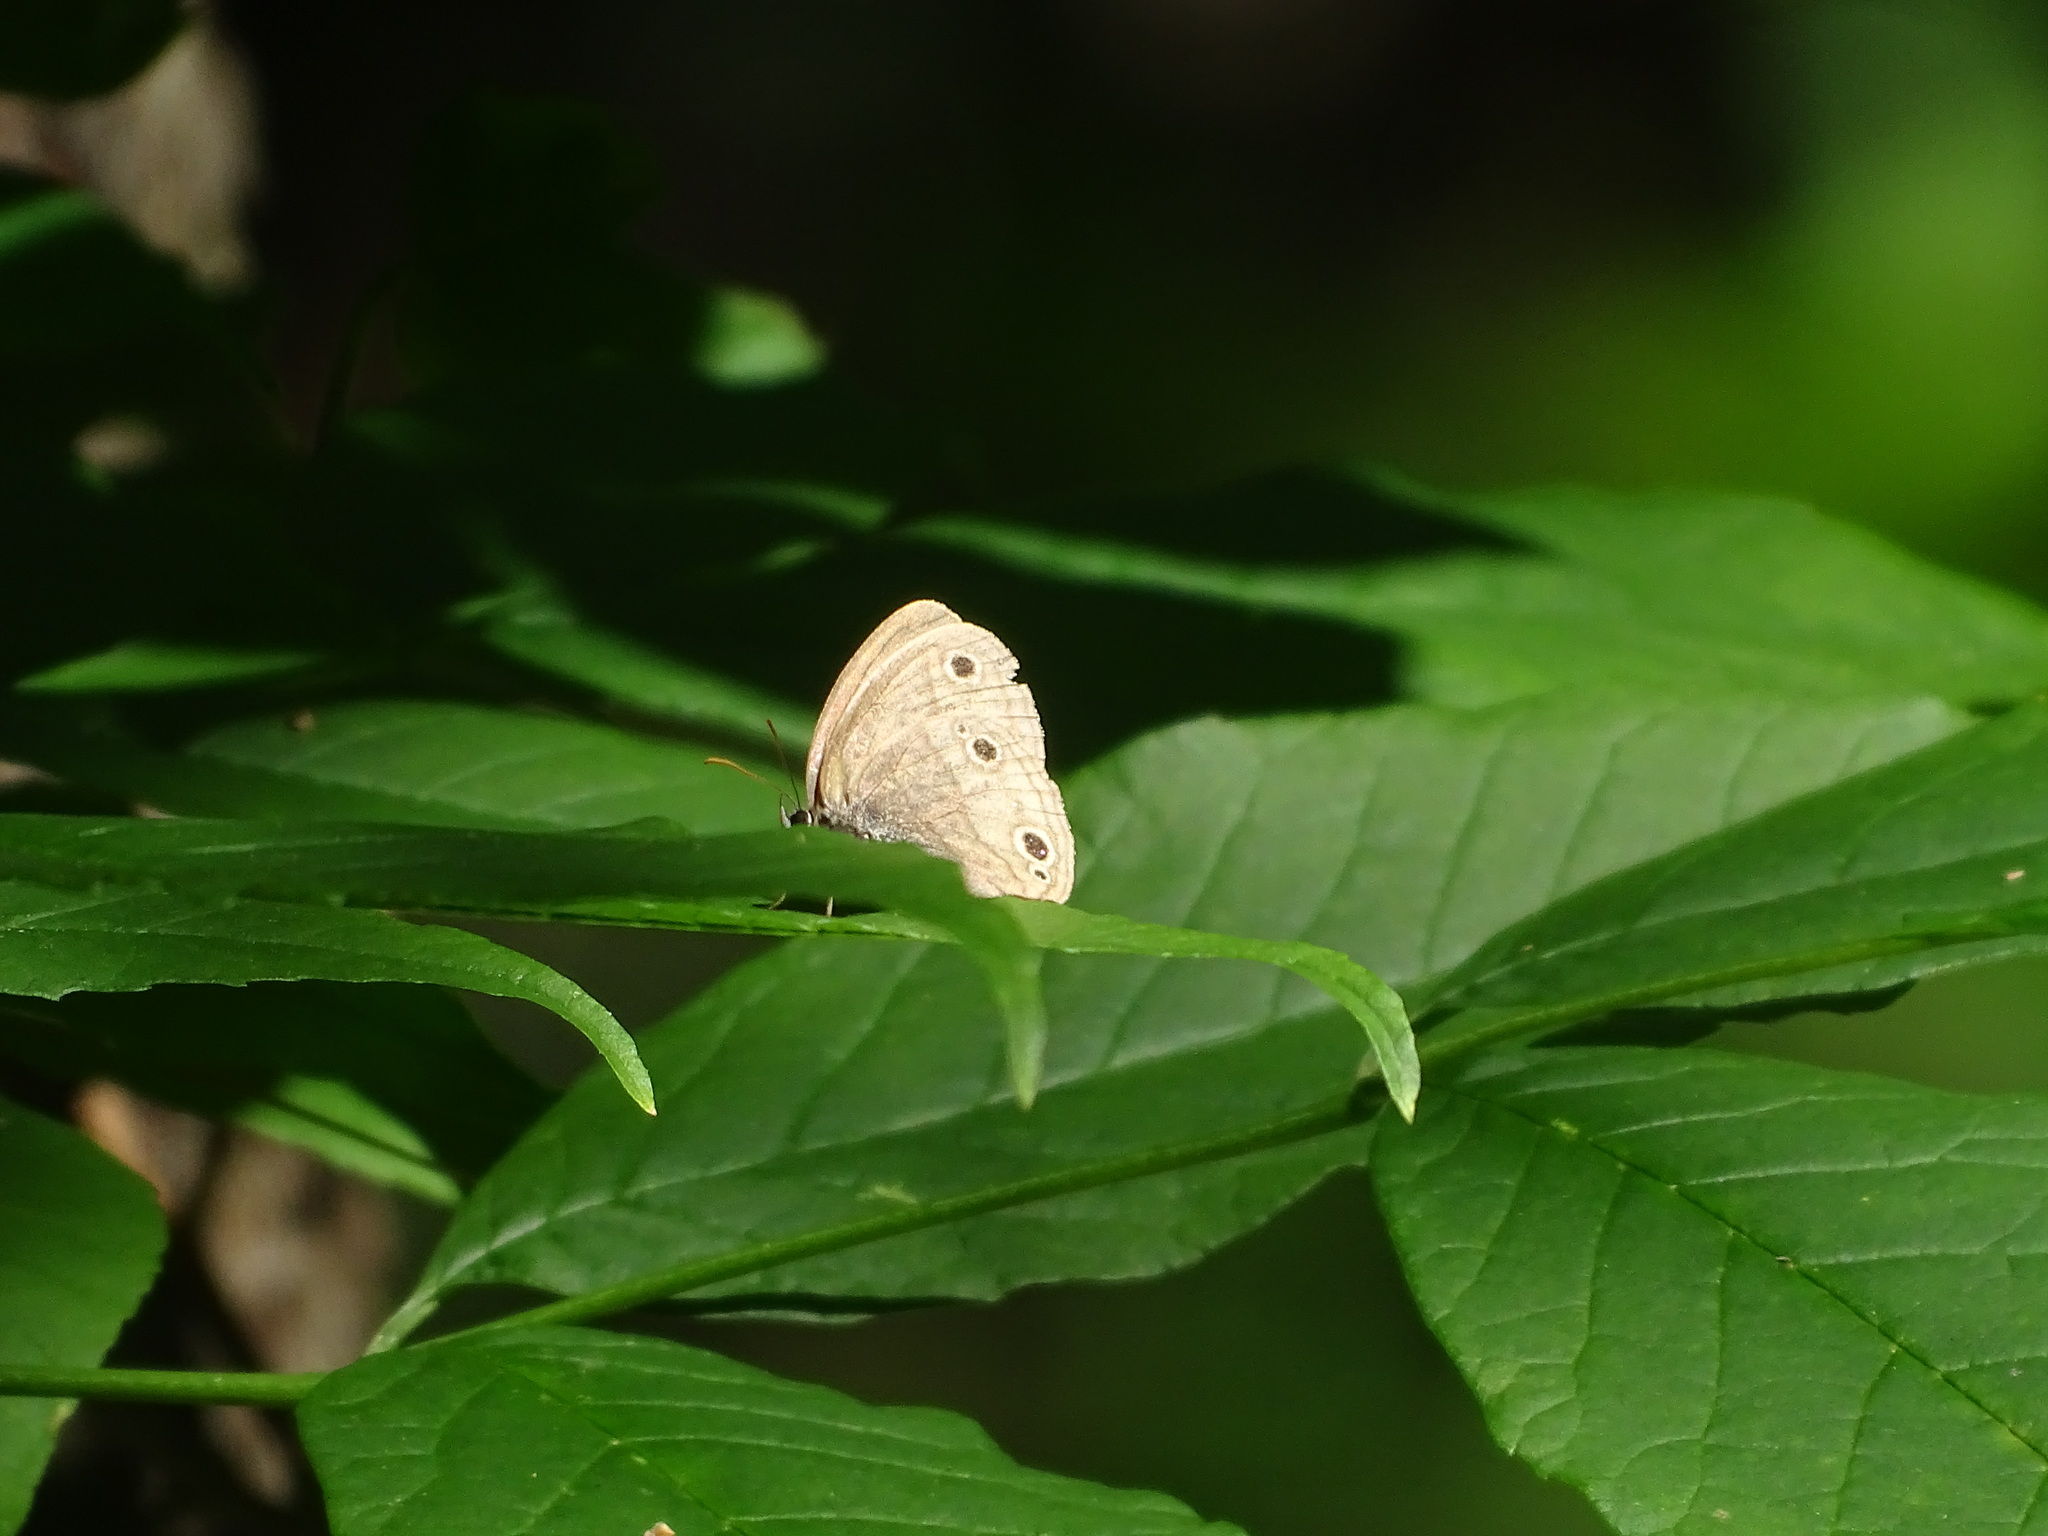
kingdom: Animalia
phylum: Arthropoda
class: Insecta
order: Lepidoptera
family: Nymphalidae
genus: Euptychia
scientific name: Euptychia cymela
